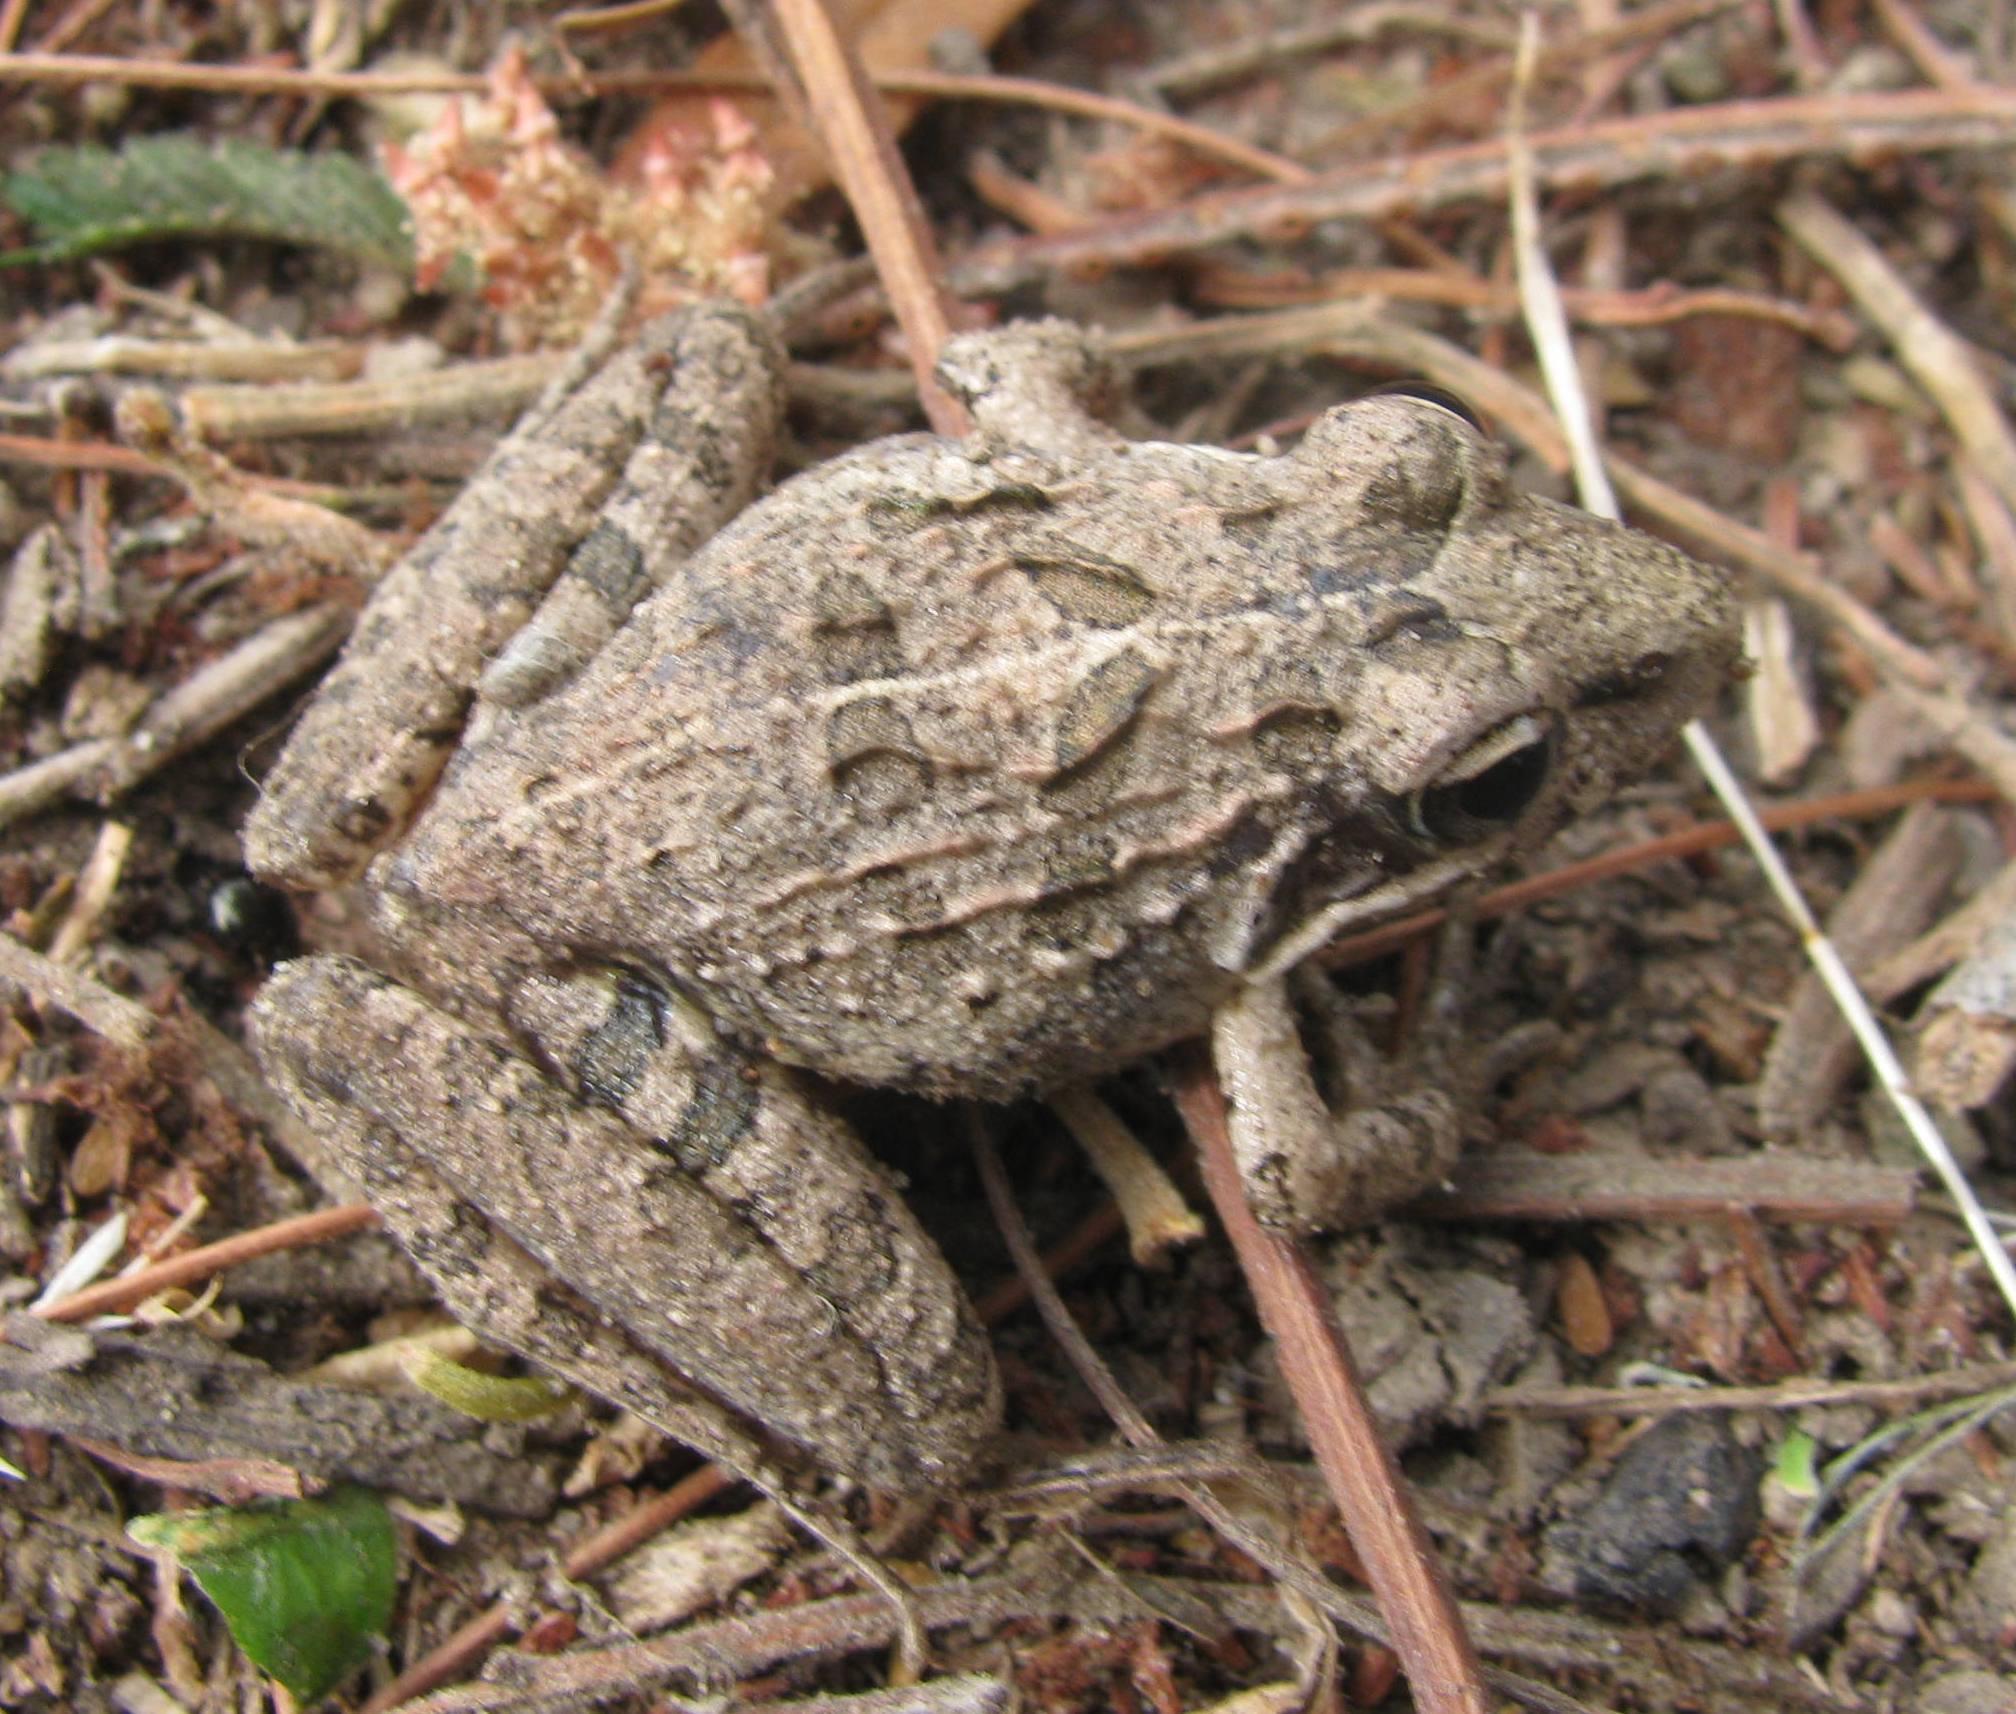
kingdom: Animalia
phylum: Chordata
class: Amphibia
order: Anura
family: Pyxicephalidae
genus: Strongylopus
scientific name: Strongylopus grayii
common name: Gray's stream frog
